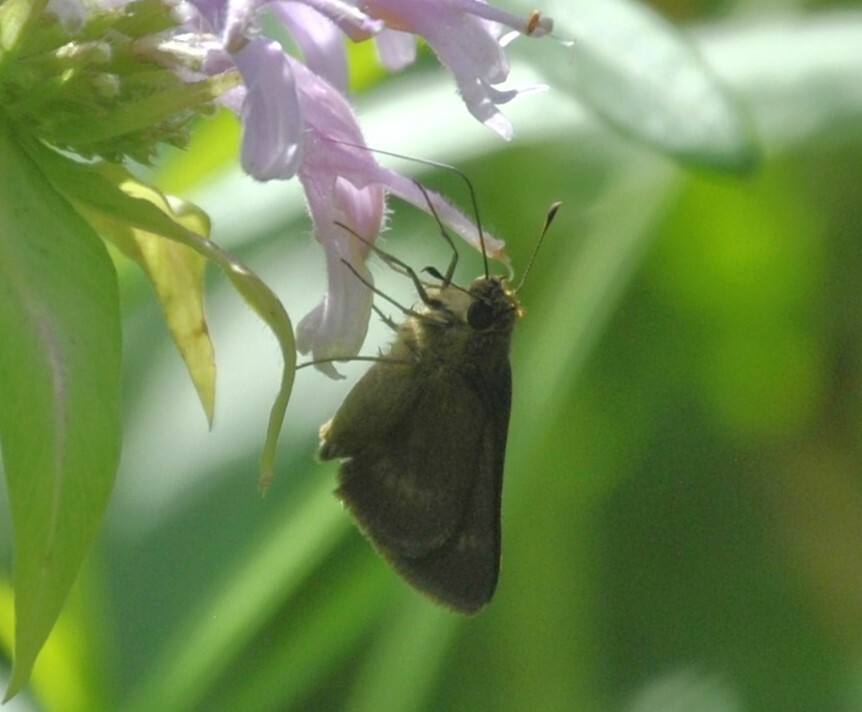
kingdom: Animalia
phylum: Arthropoda
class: Insecta
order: Lepidoptera
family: Hesperiidae
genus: Polites
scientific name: Polites egeremet
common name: Northern broken-dash
